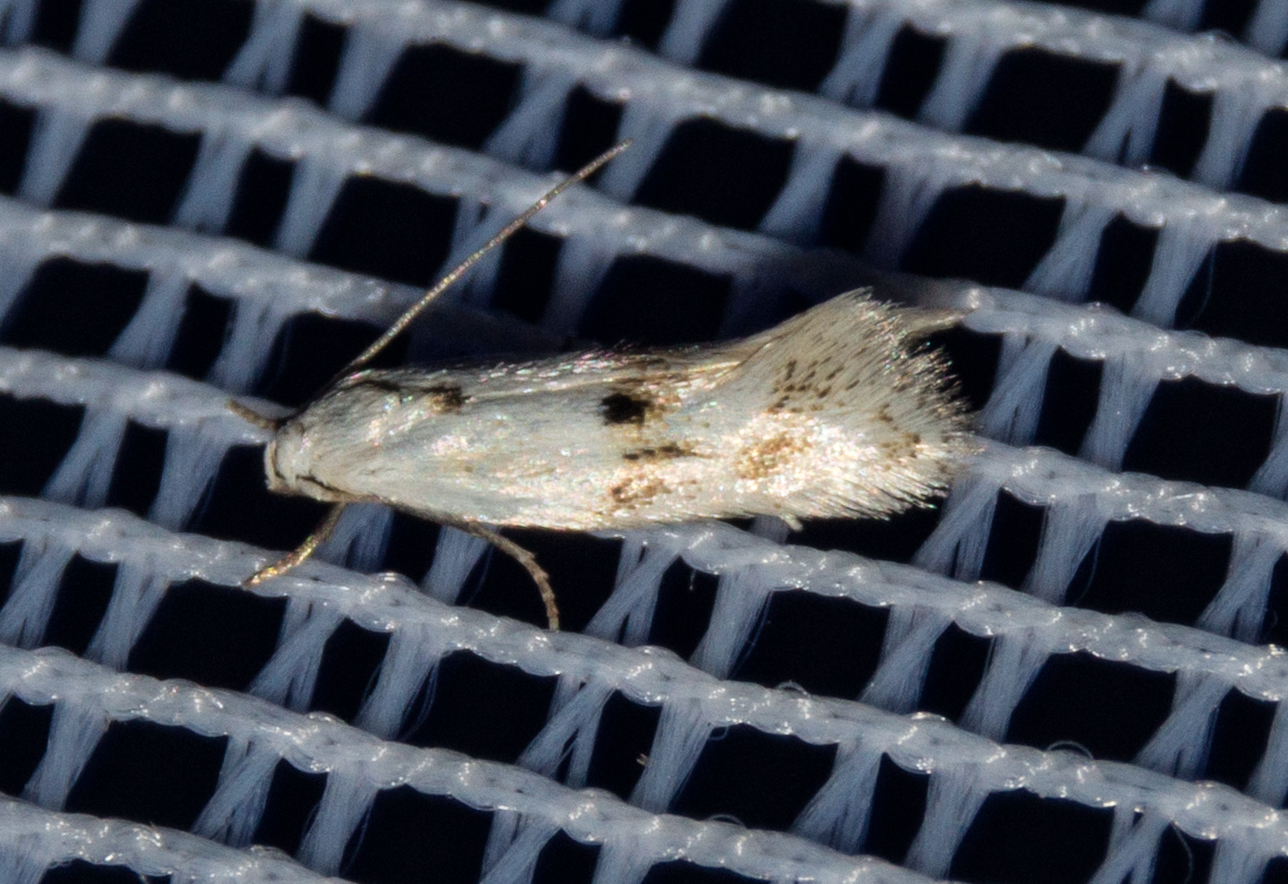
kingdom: Animalia
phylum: Arthropoda
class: Insecta
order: Lepidoptera
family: Elachistidae
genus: Elachista
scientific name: Elachista maculicerusella
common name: Triple-spot dwarf
